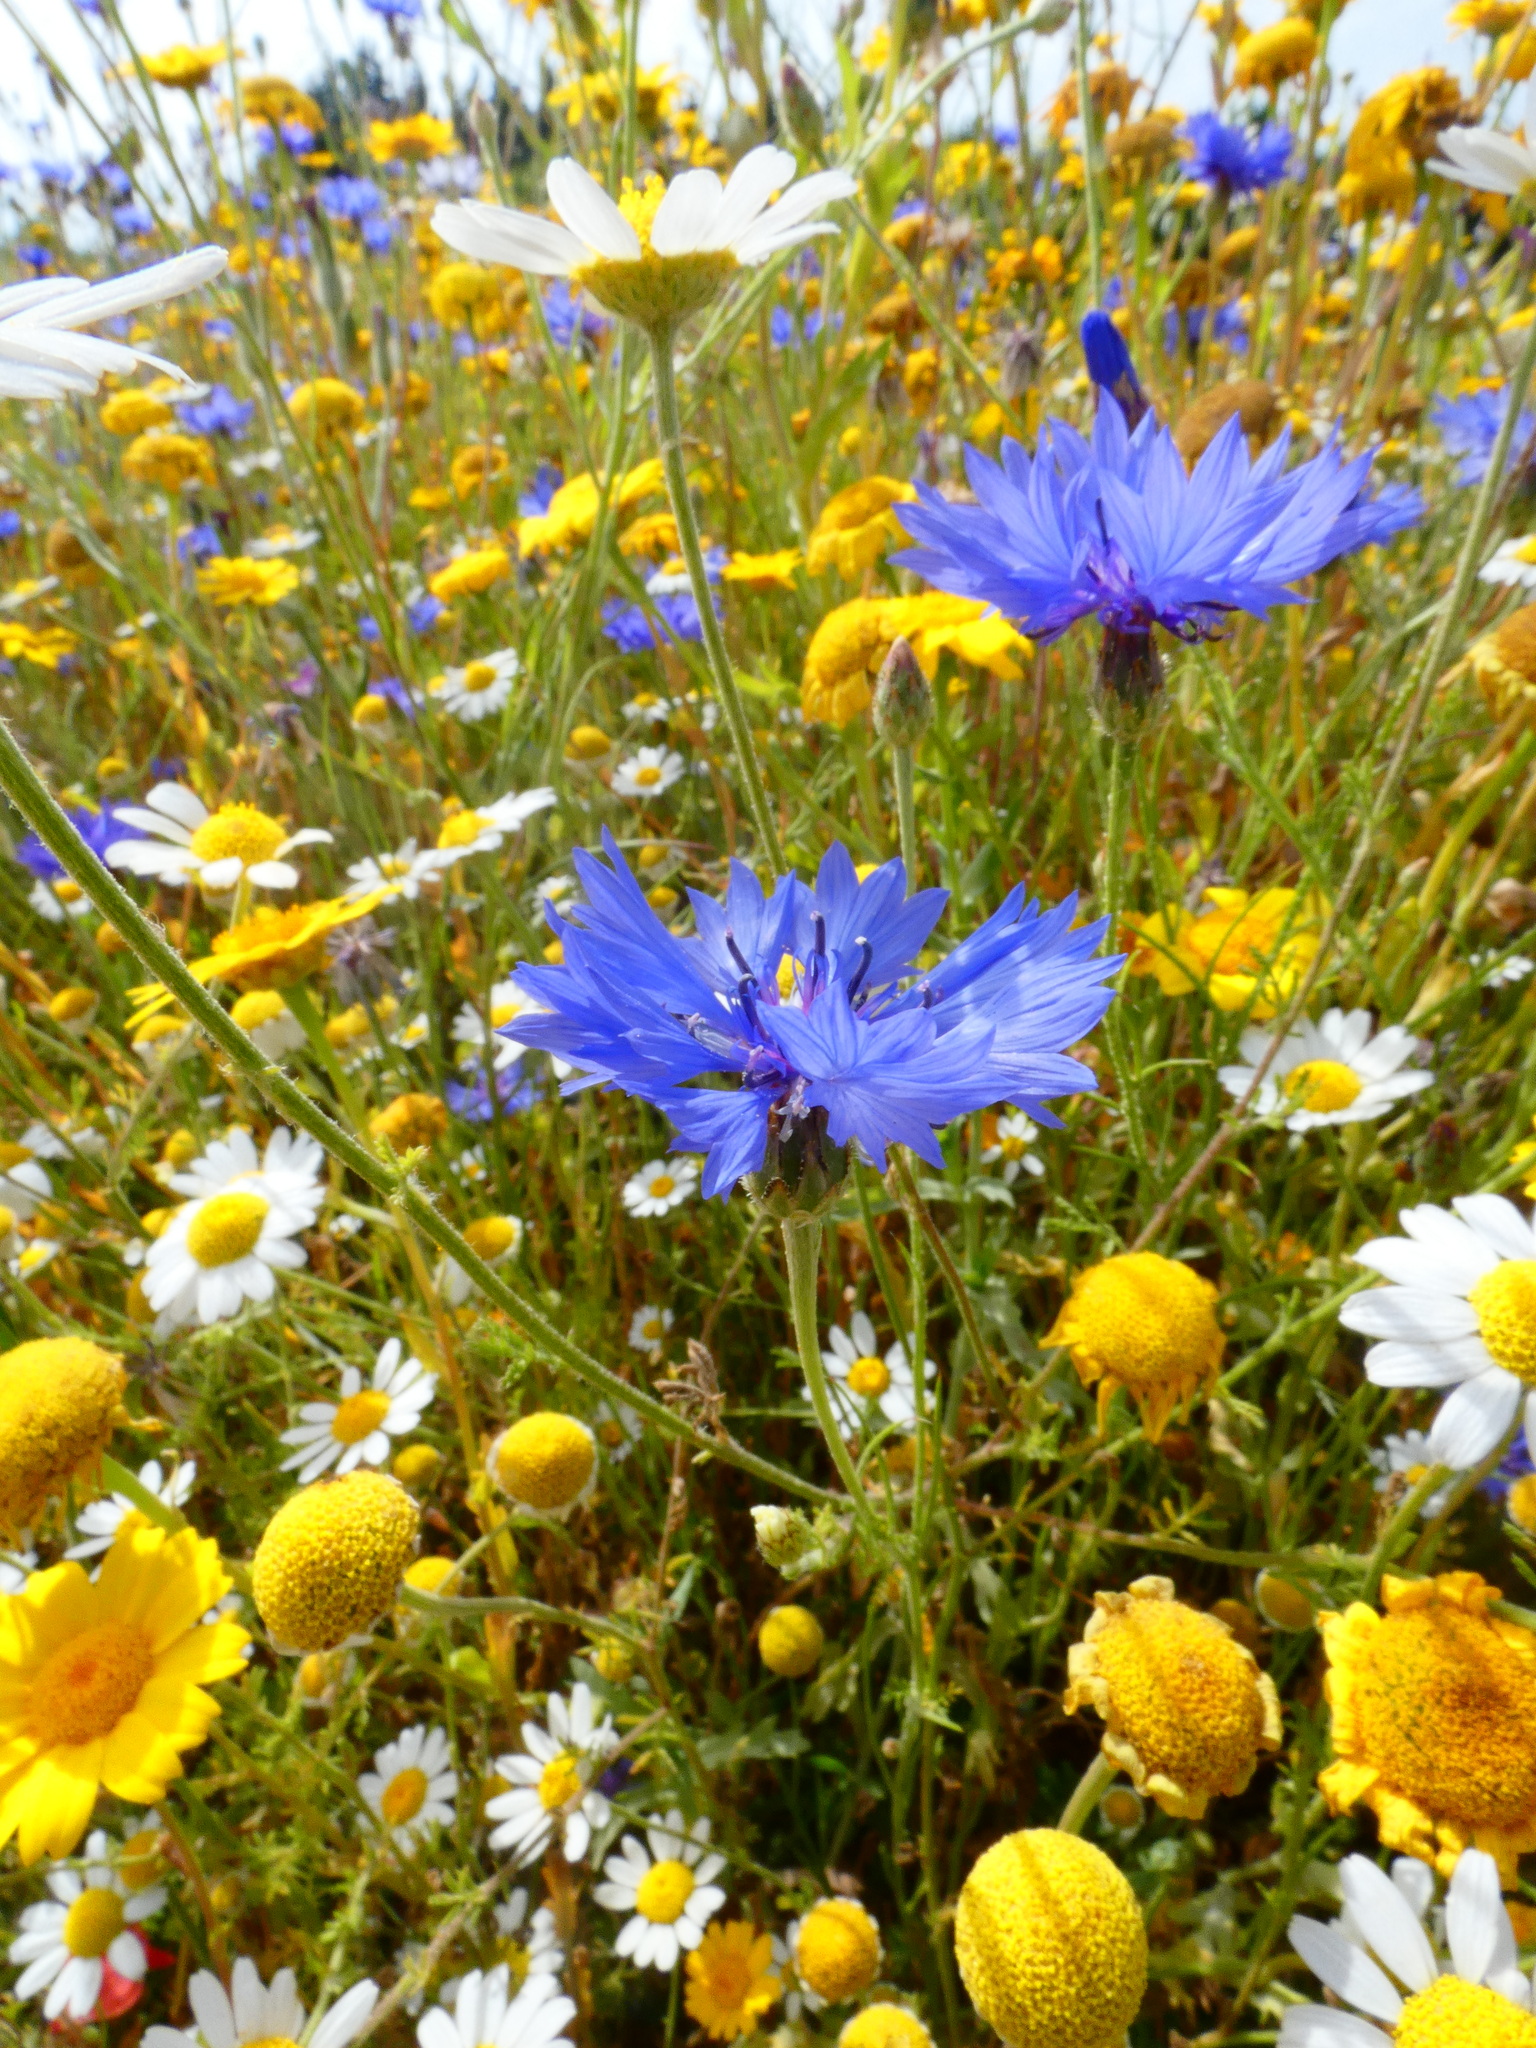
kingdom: Plantae
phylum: Tracheophyta
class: Magnoliopsida
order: Asterales
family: Asteraceae
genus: Centaurea
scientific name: Centaurea cyanus
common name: Cornflower
